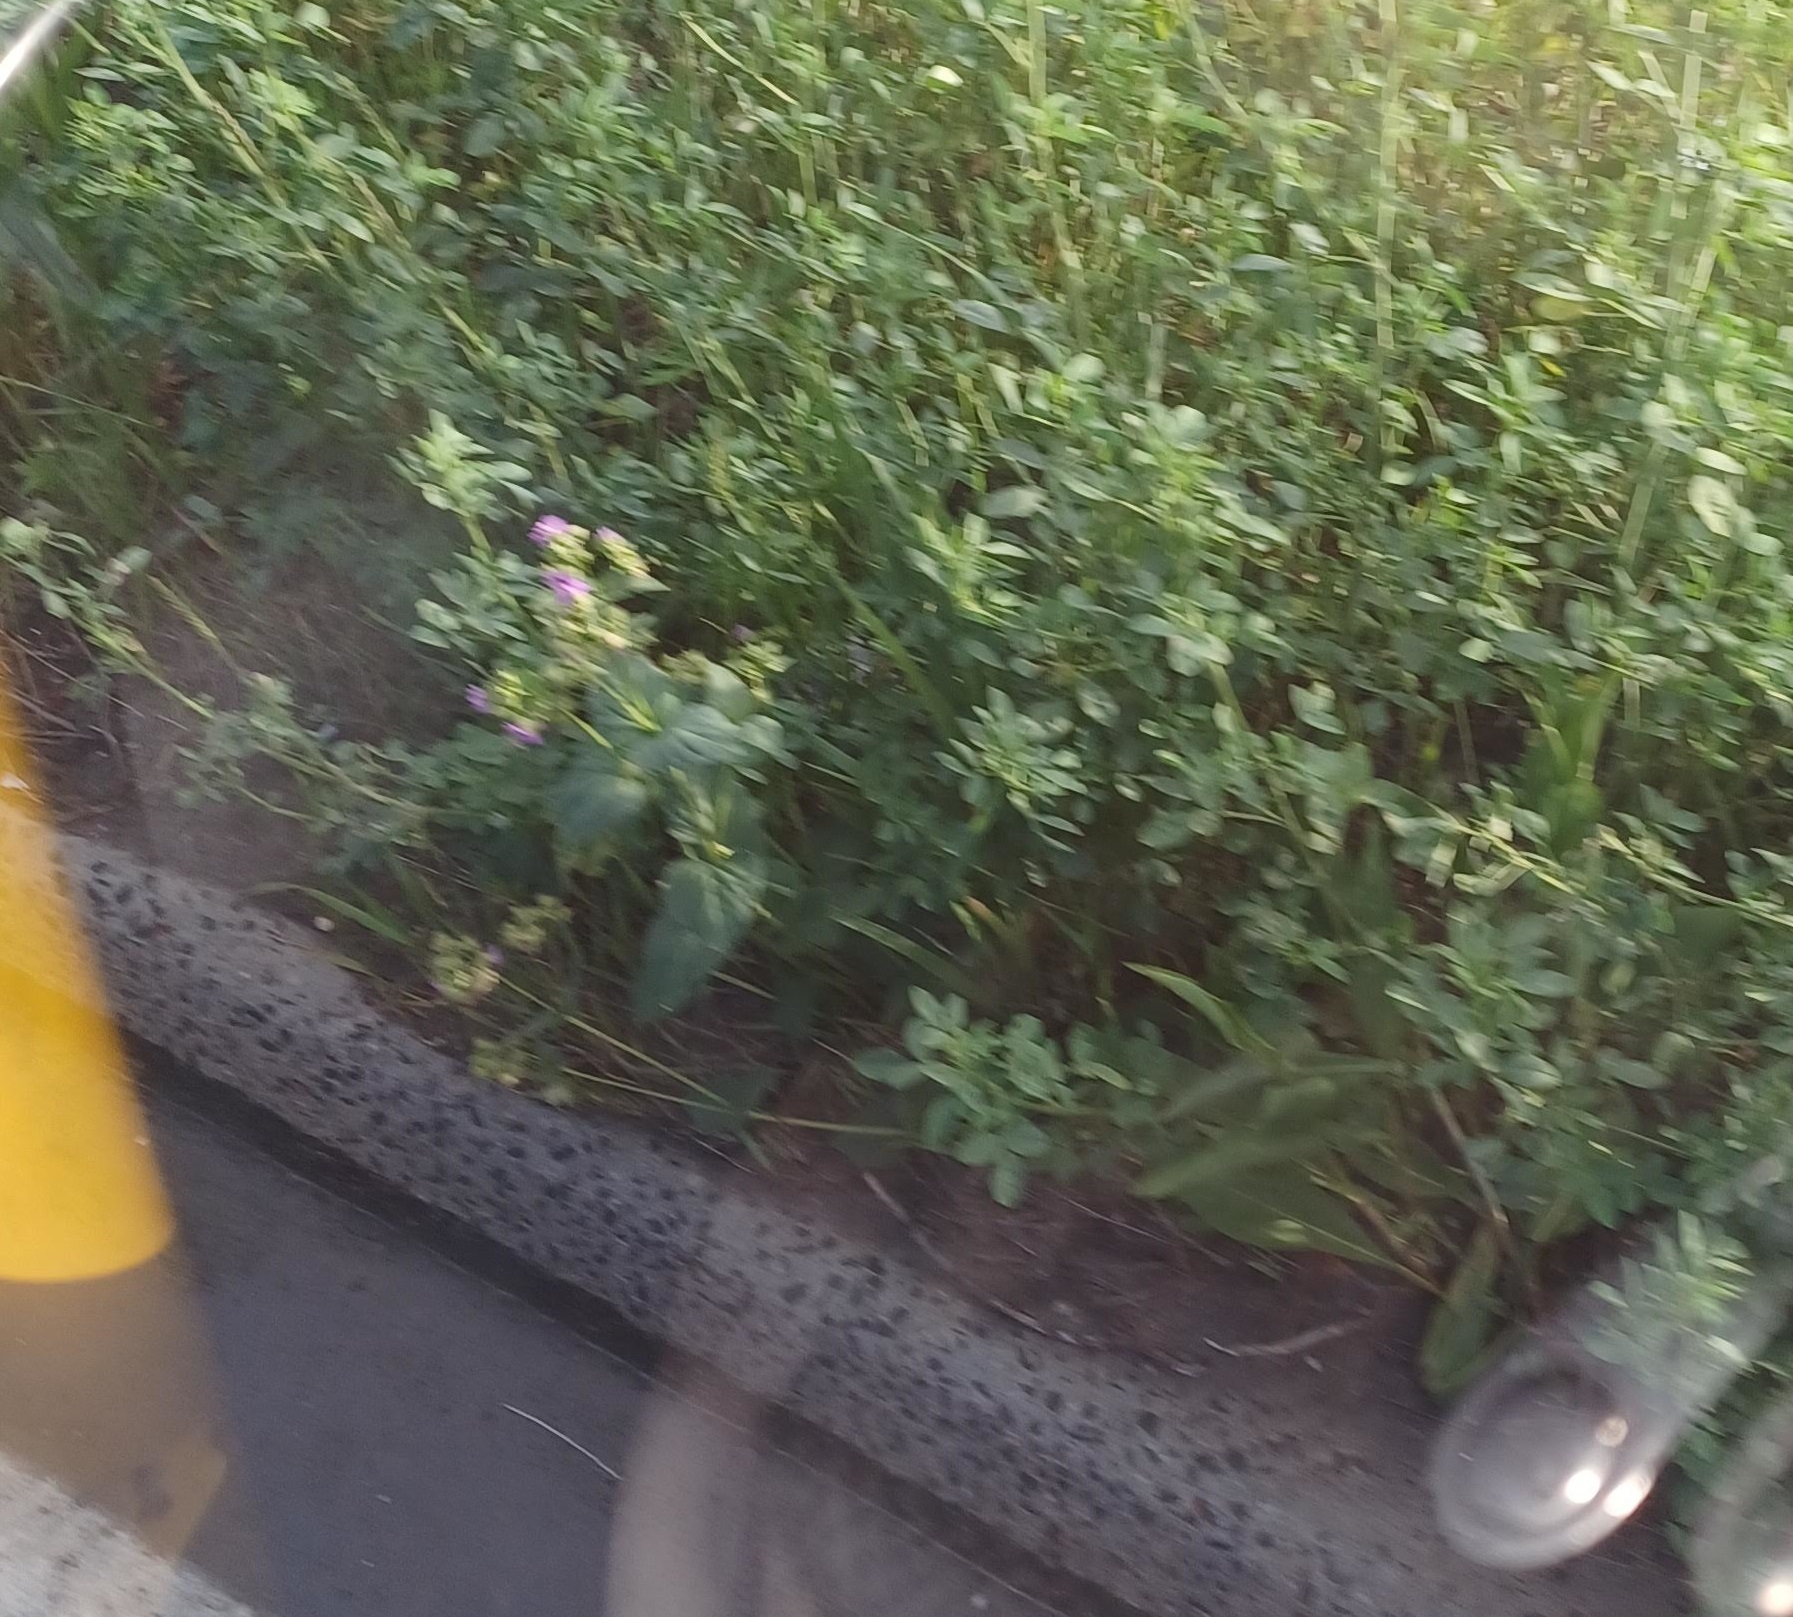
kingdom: Plantae
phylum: Tracheophyta
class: Magnoliopsida
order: Caryophyllales
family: Nyctaginaceae
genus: Mirabilis
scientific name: Mirabilis nyctaginea
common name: Umbrella wort
